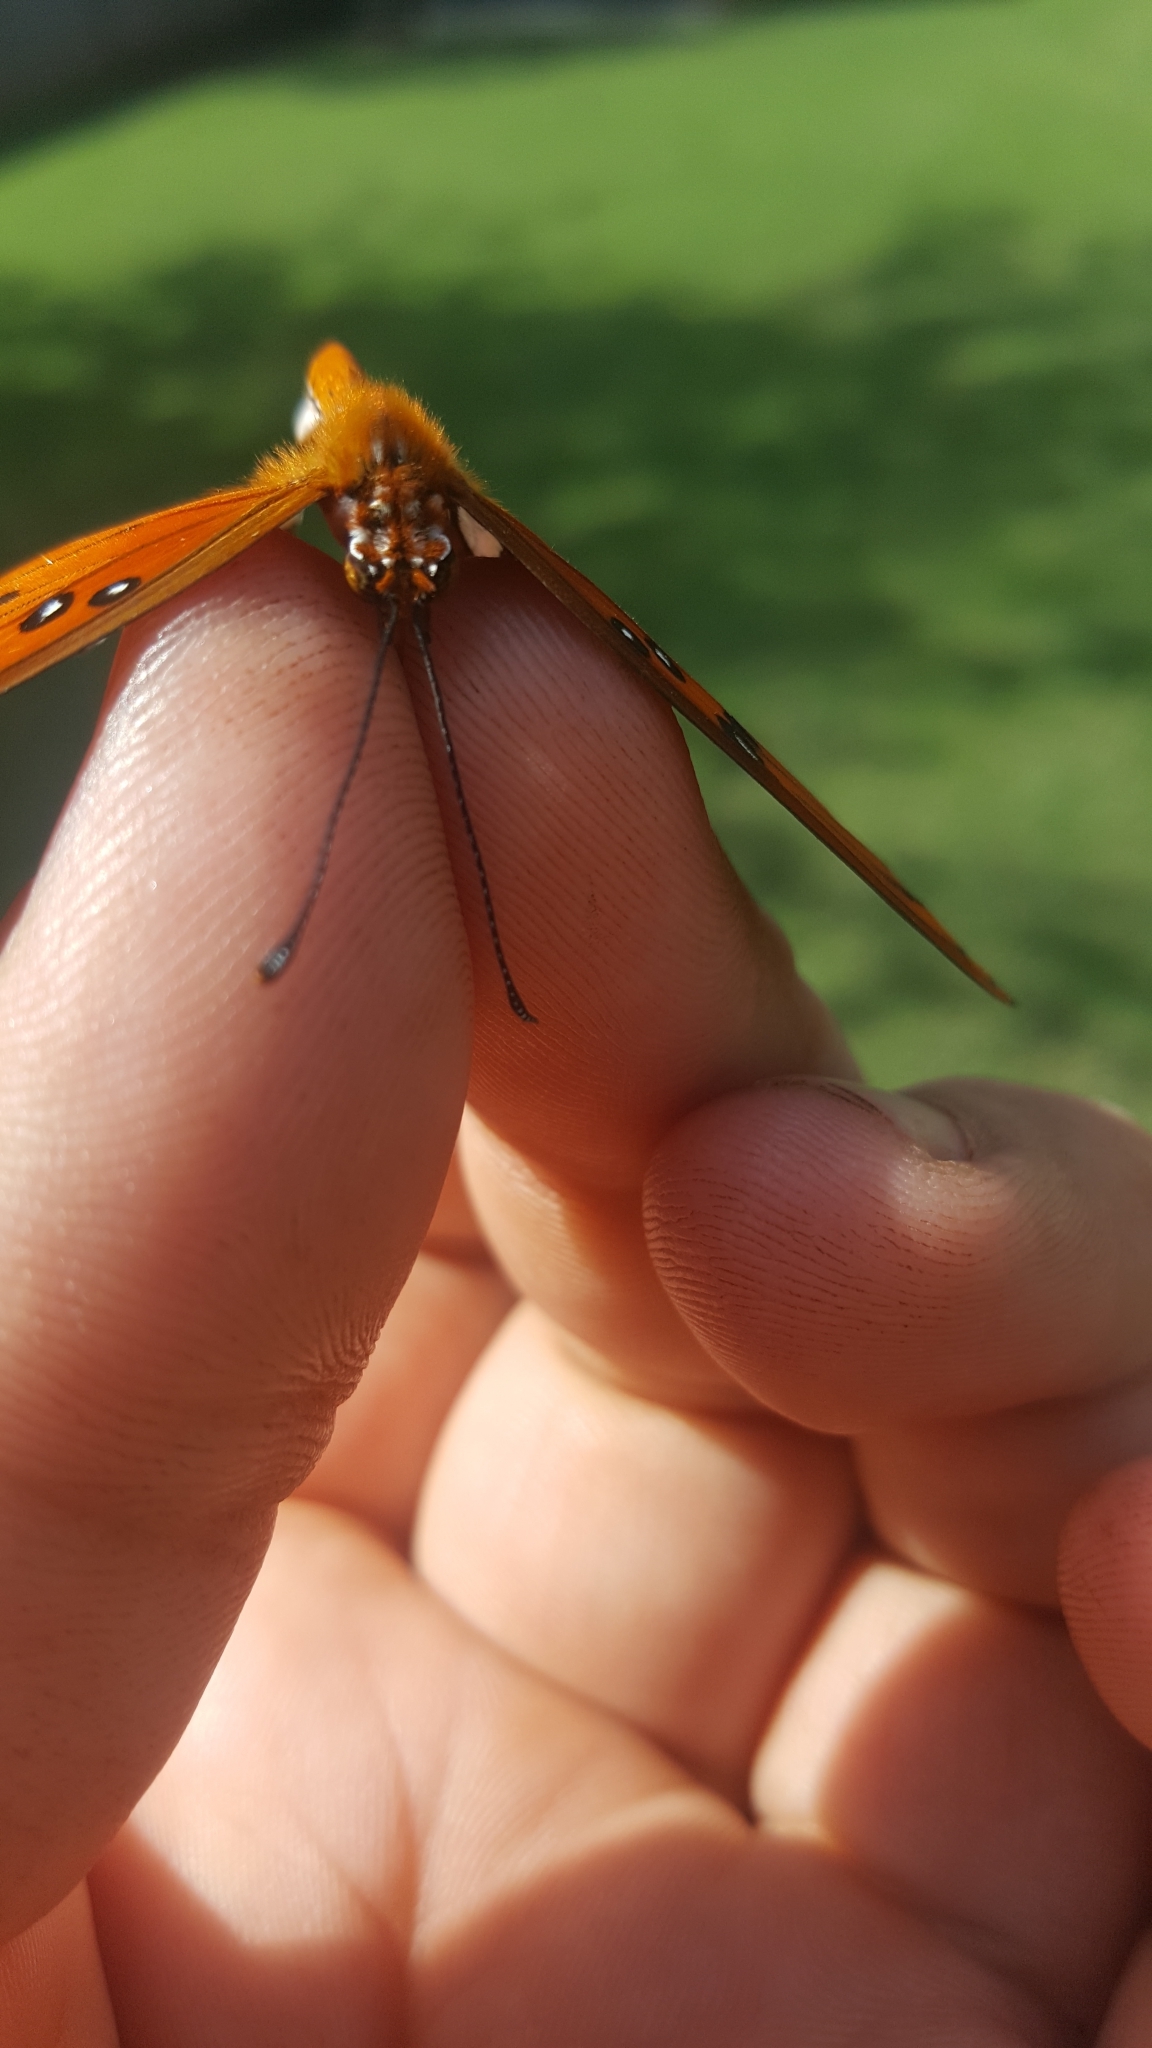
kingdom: Animalia
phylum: Arthropoda
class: Insecta
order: Lepidoptera
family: Nymphalidae
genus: Dione
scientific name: Dione vanillae
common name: Gulf fritillary
